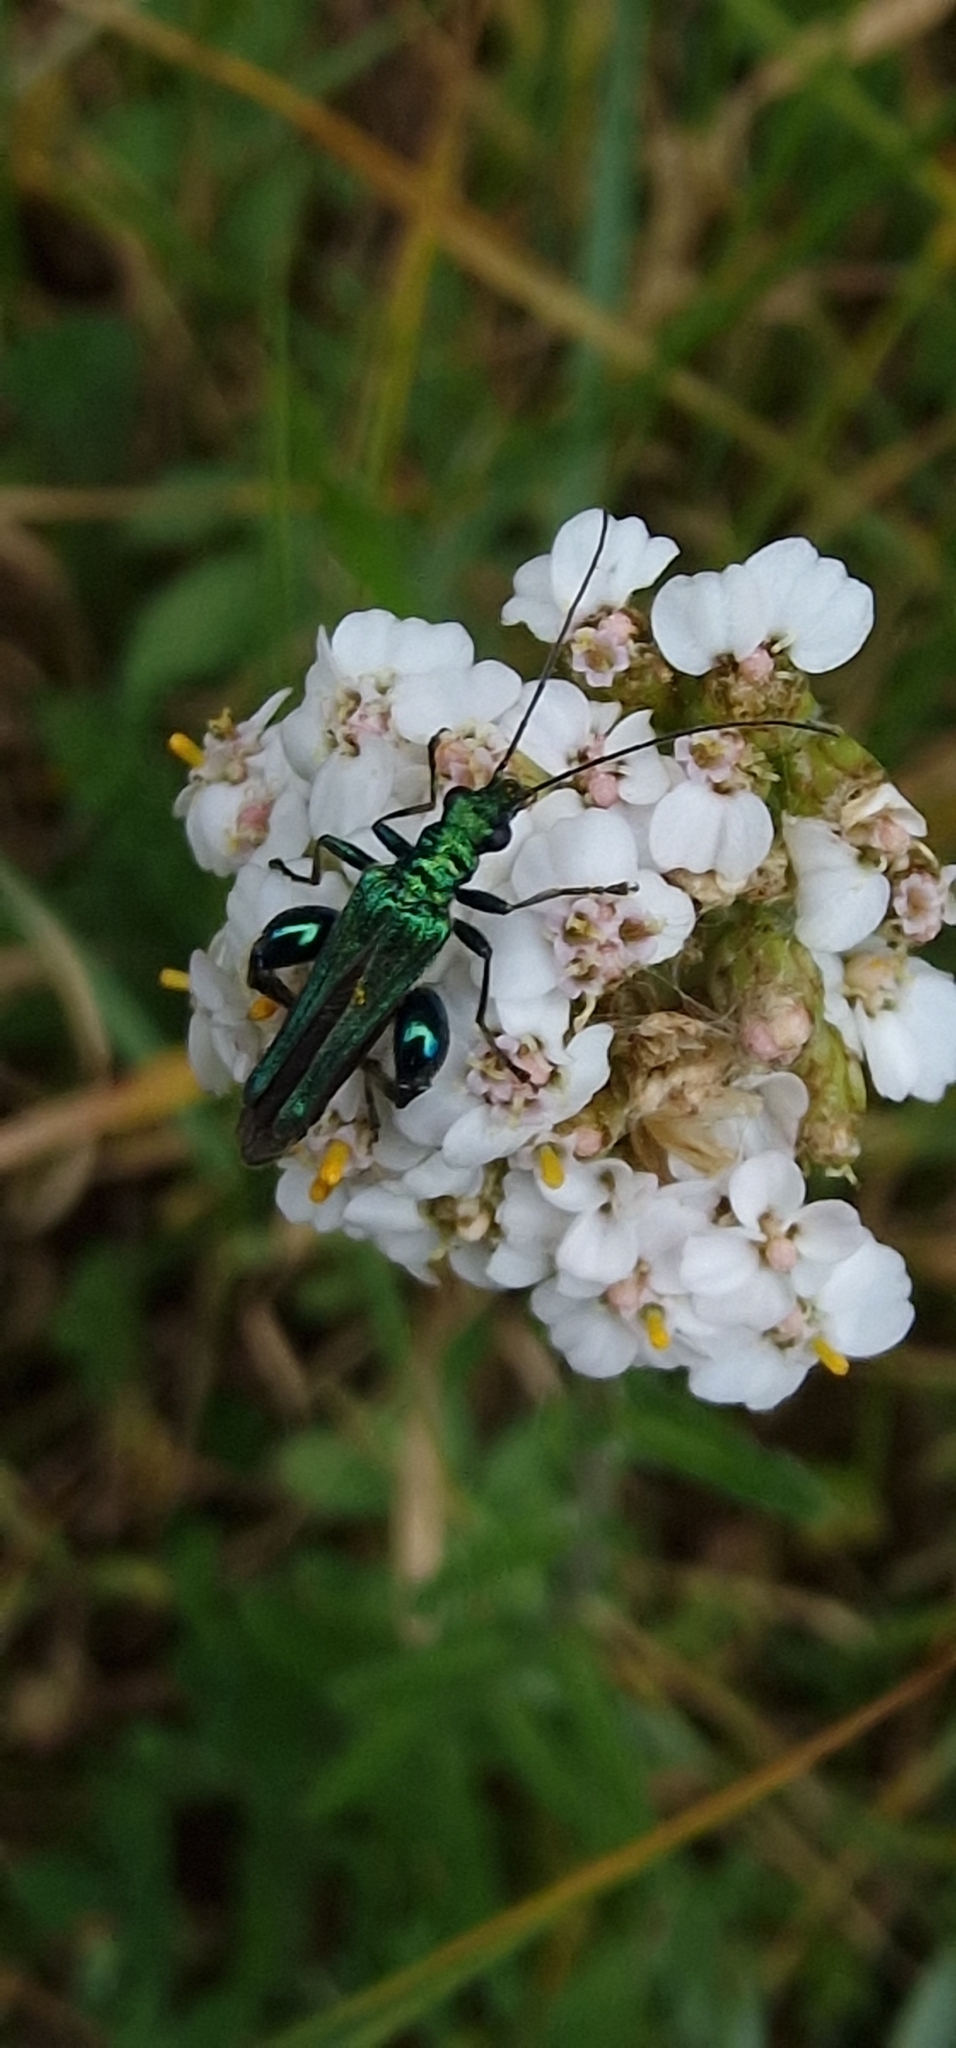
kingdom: Animalia
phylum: Arthropoda
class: Insecta
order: Coleoptera
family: Oedemeridae
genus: Oedemera
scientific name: Oedemera nobilis
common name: Swollen-thighed beetle
